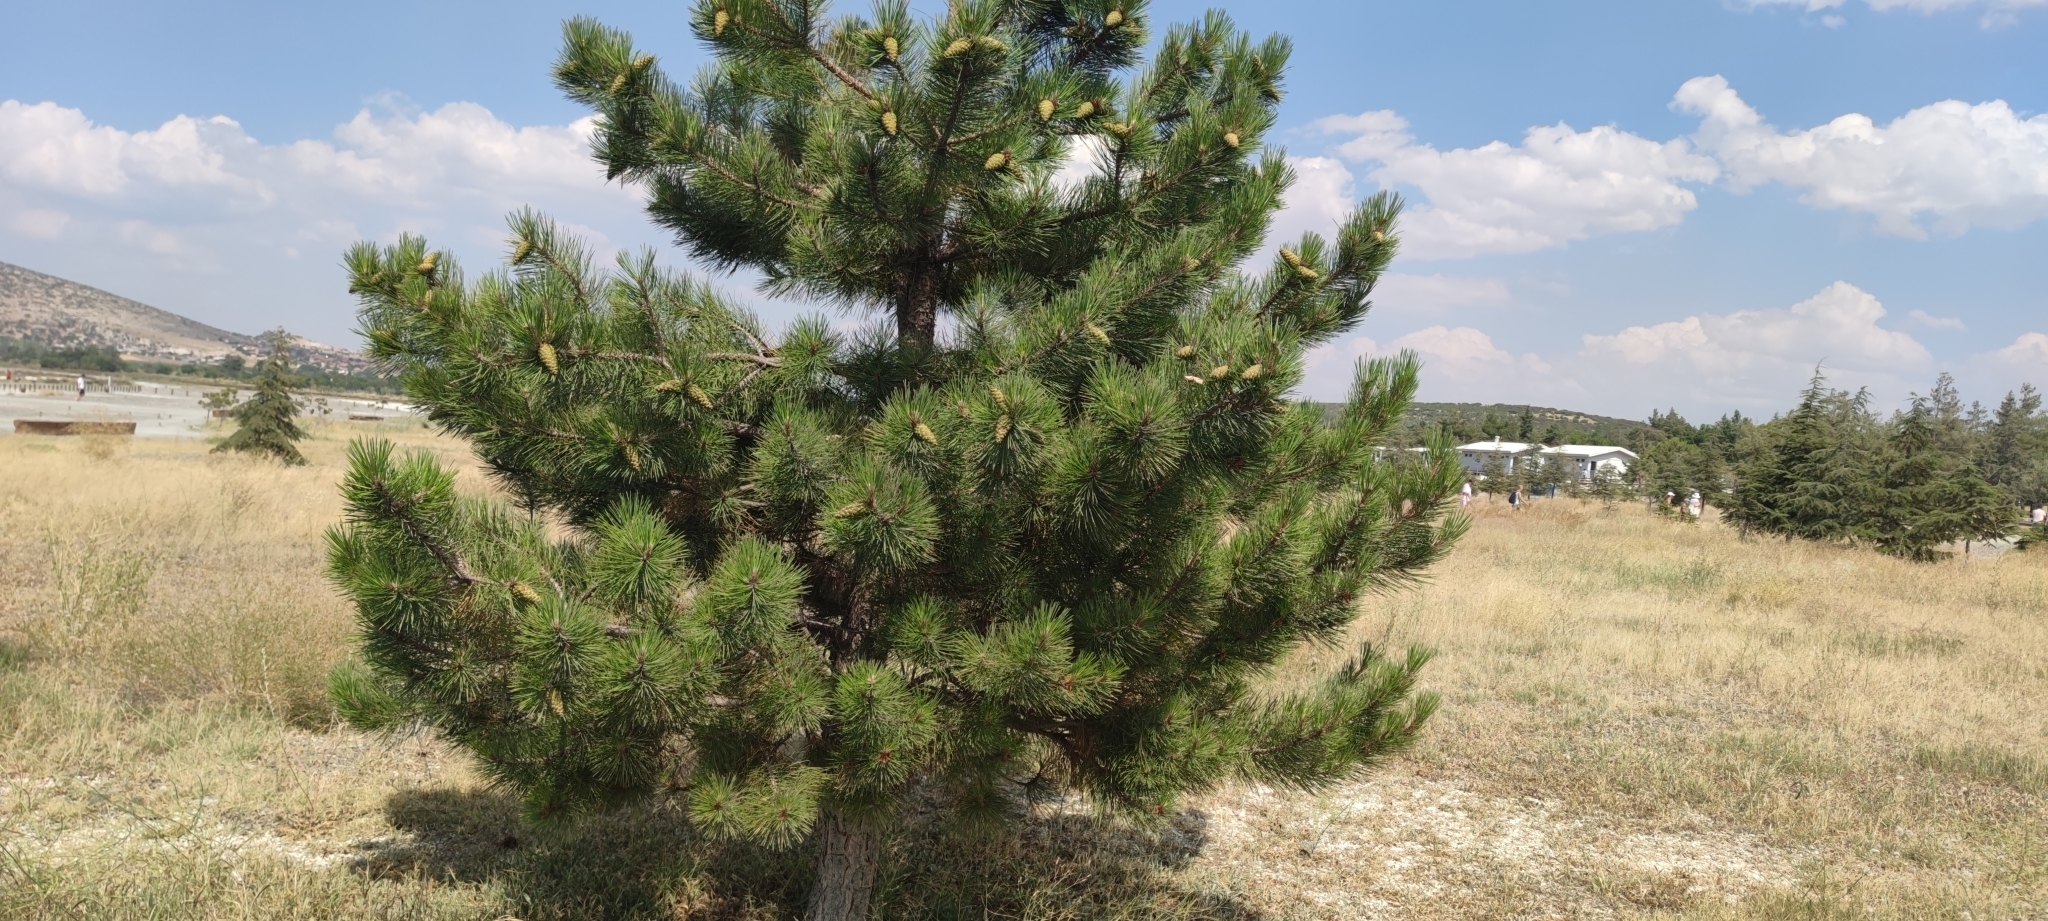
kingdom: Plantae
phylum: Tracheophyta
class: Pinopsida
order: Pinales
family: Pinaceae
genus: Pinus
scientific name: Pinus nigra
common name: Austrian pine
